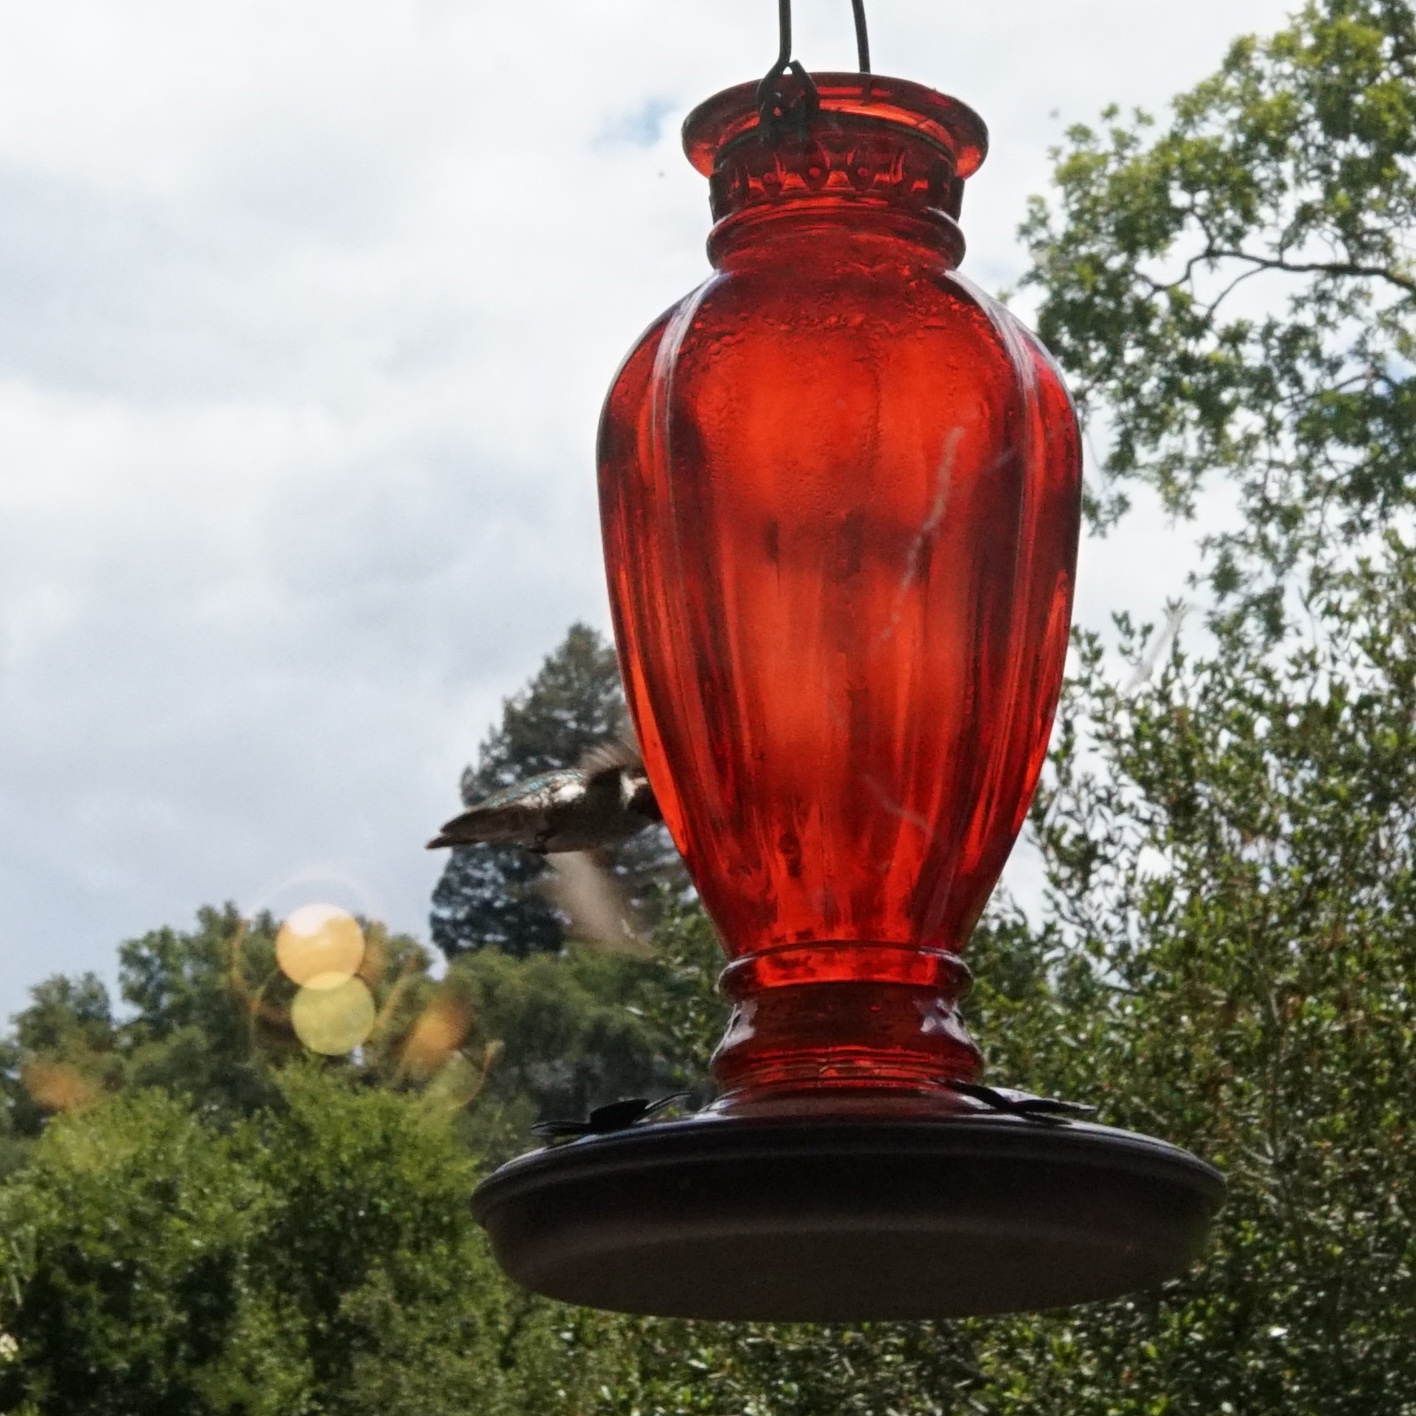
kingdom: Animalia
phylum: Chordata
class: Aves
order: Apodiformes
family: Trochilidae
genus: Calypte
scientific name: Calypte anna
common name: Anna's hummingbird
